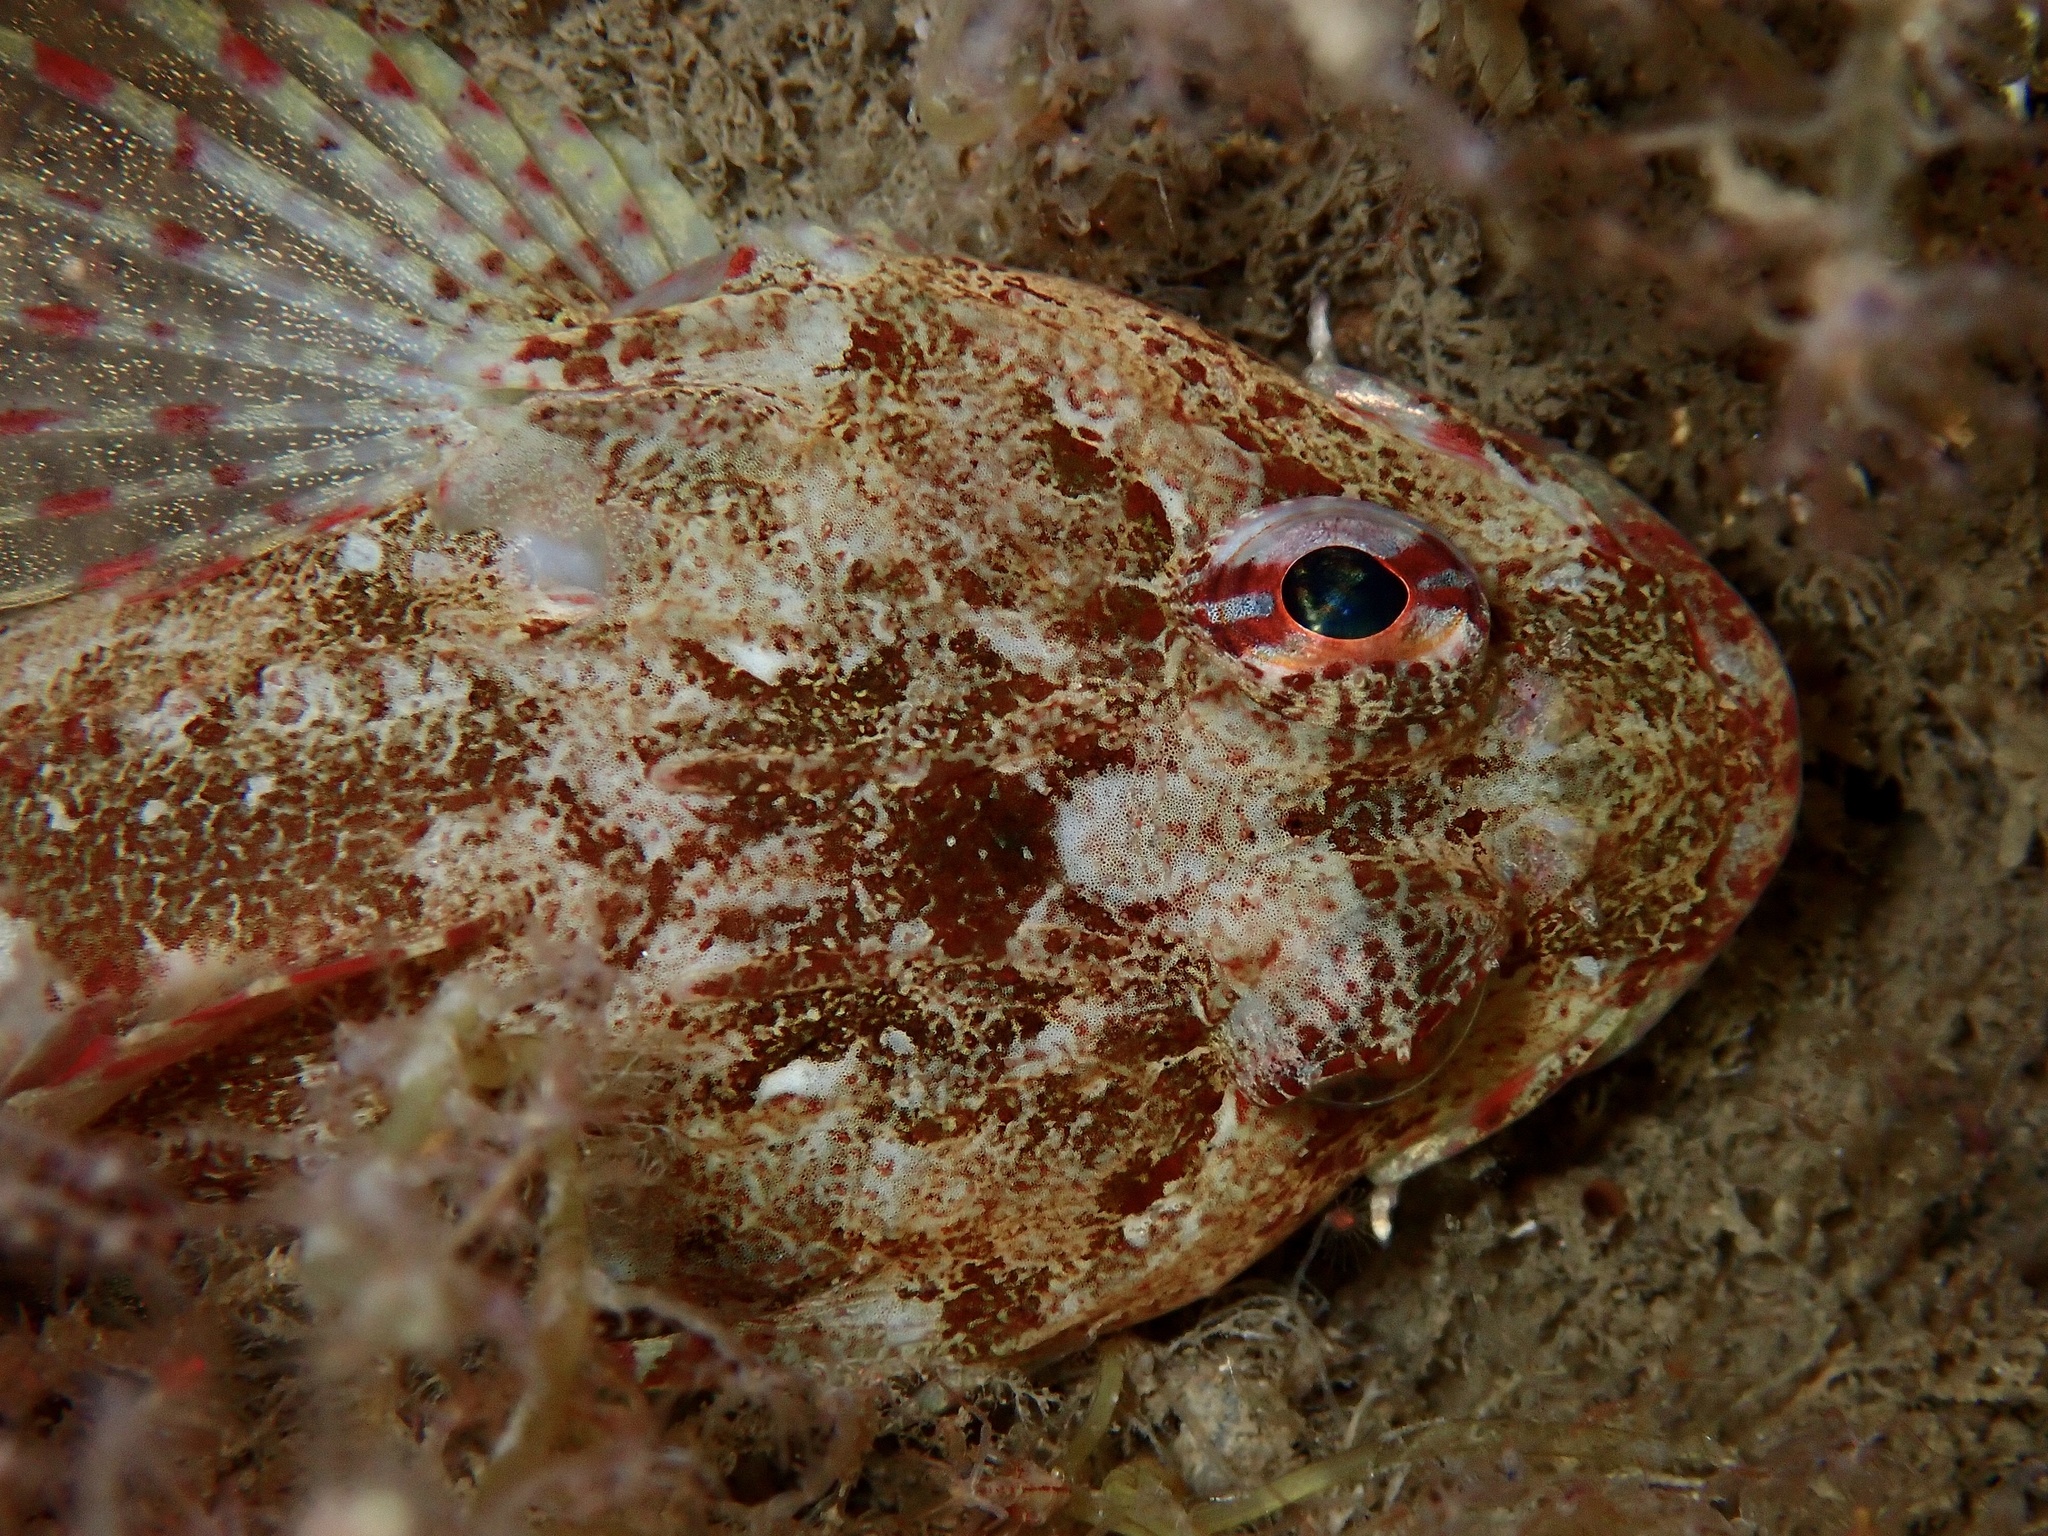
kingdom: Animalia
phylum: Chordata
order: Scorpaeniformes
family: Cottidae
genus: Taurulus
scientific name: Taurulus bubalis
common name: Sea scorpion
